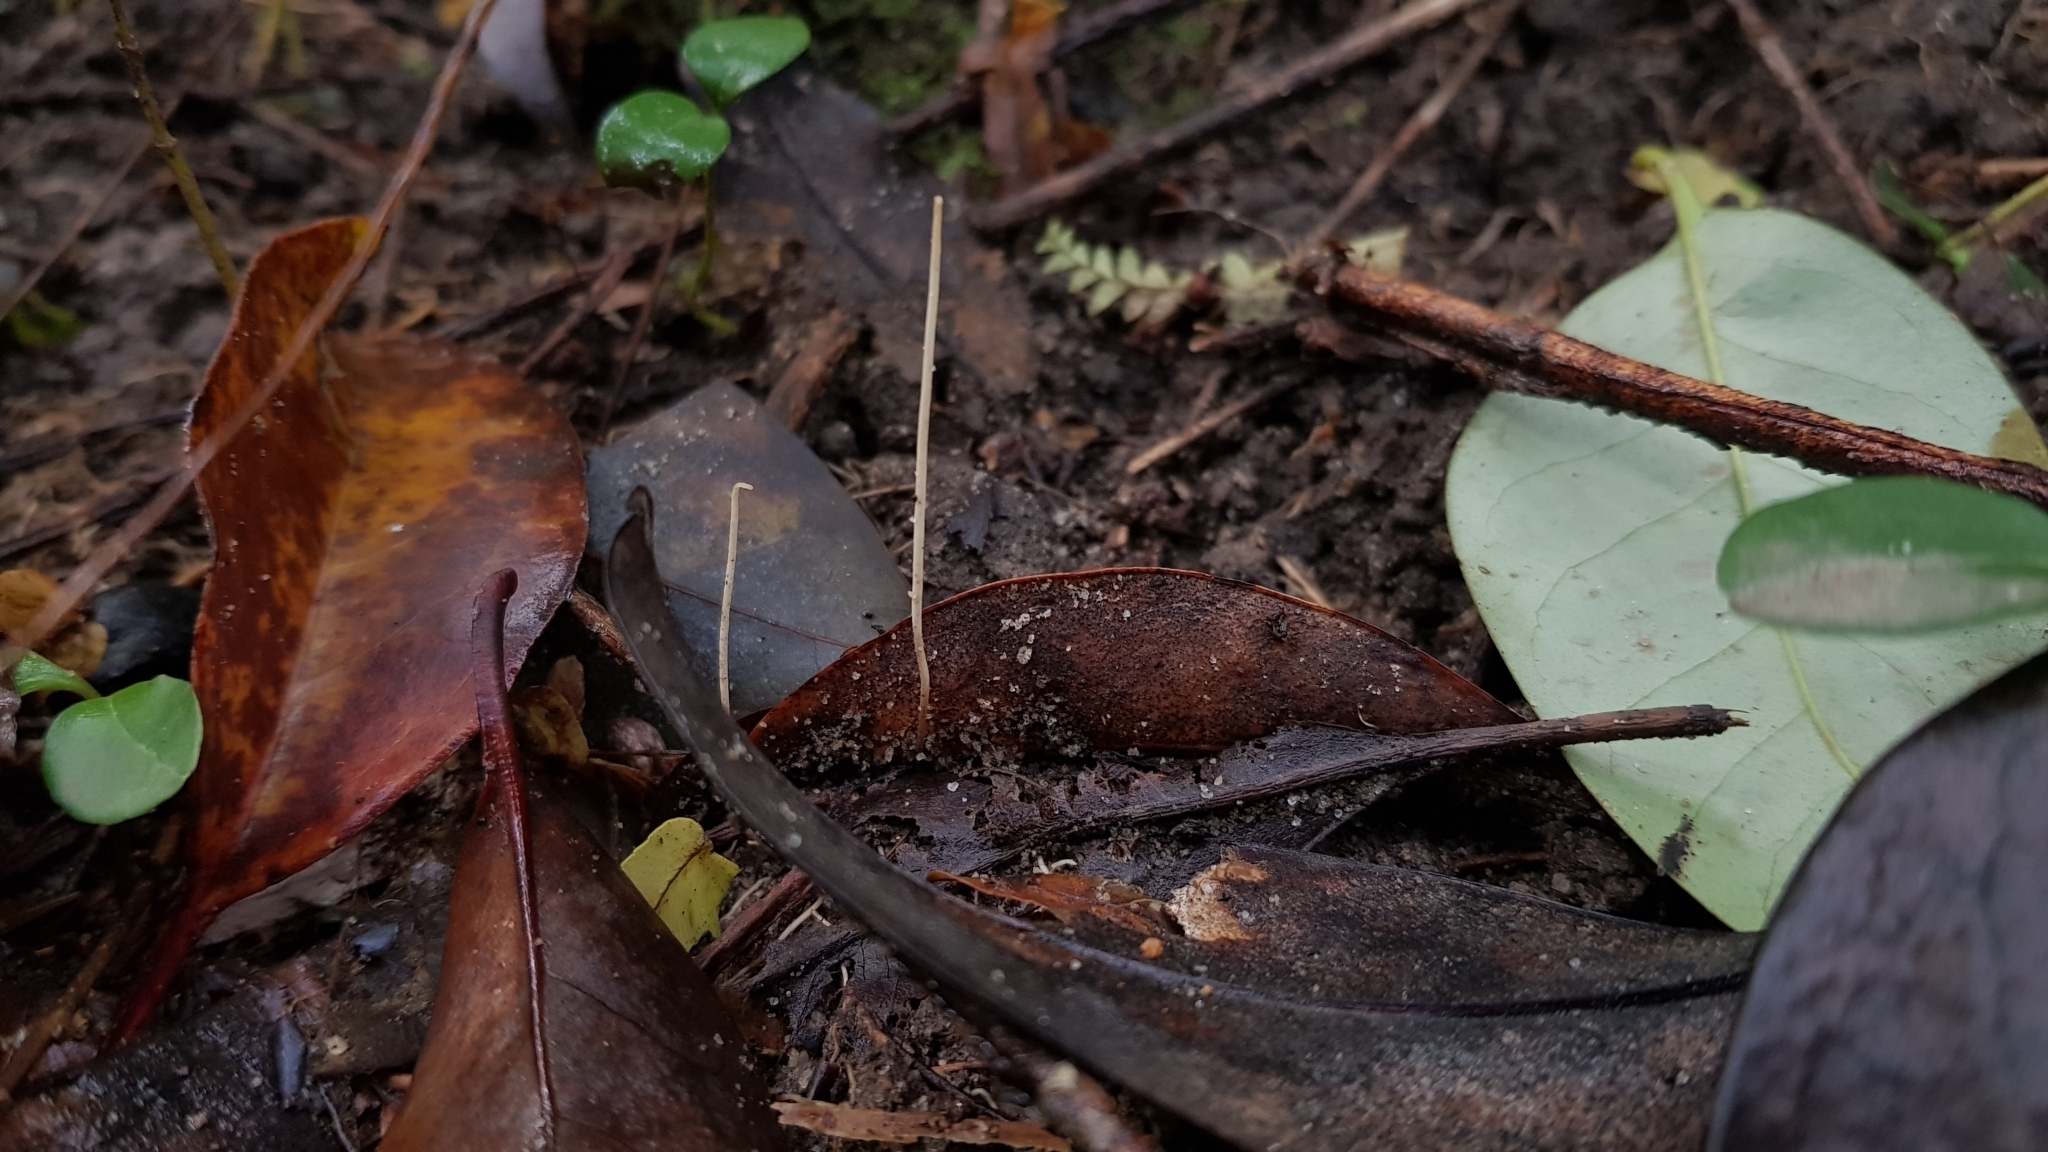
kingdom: Fungi
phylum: Basidiomycota
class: Agaricomycetes
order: Agaricales
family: Typhulaceae
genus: Typhula
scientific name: Typhula juncea
